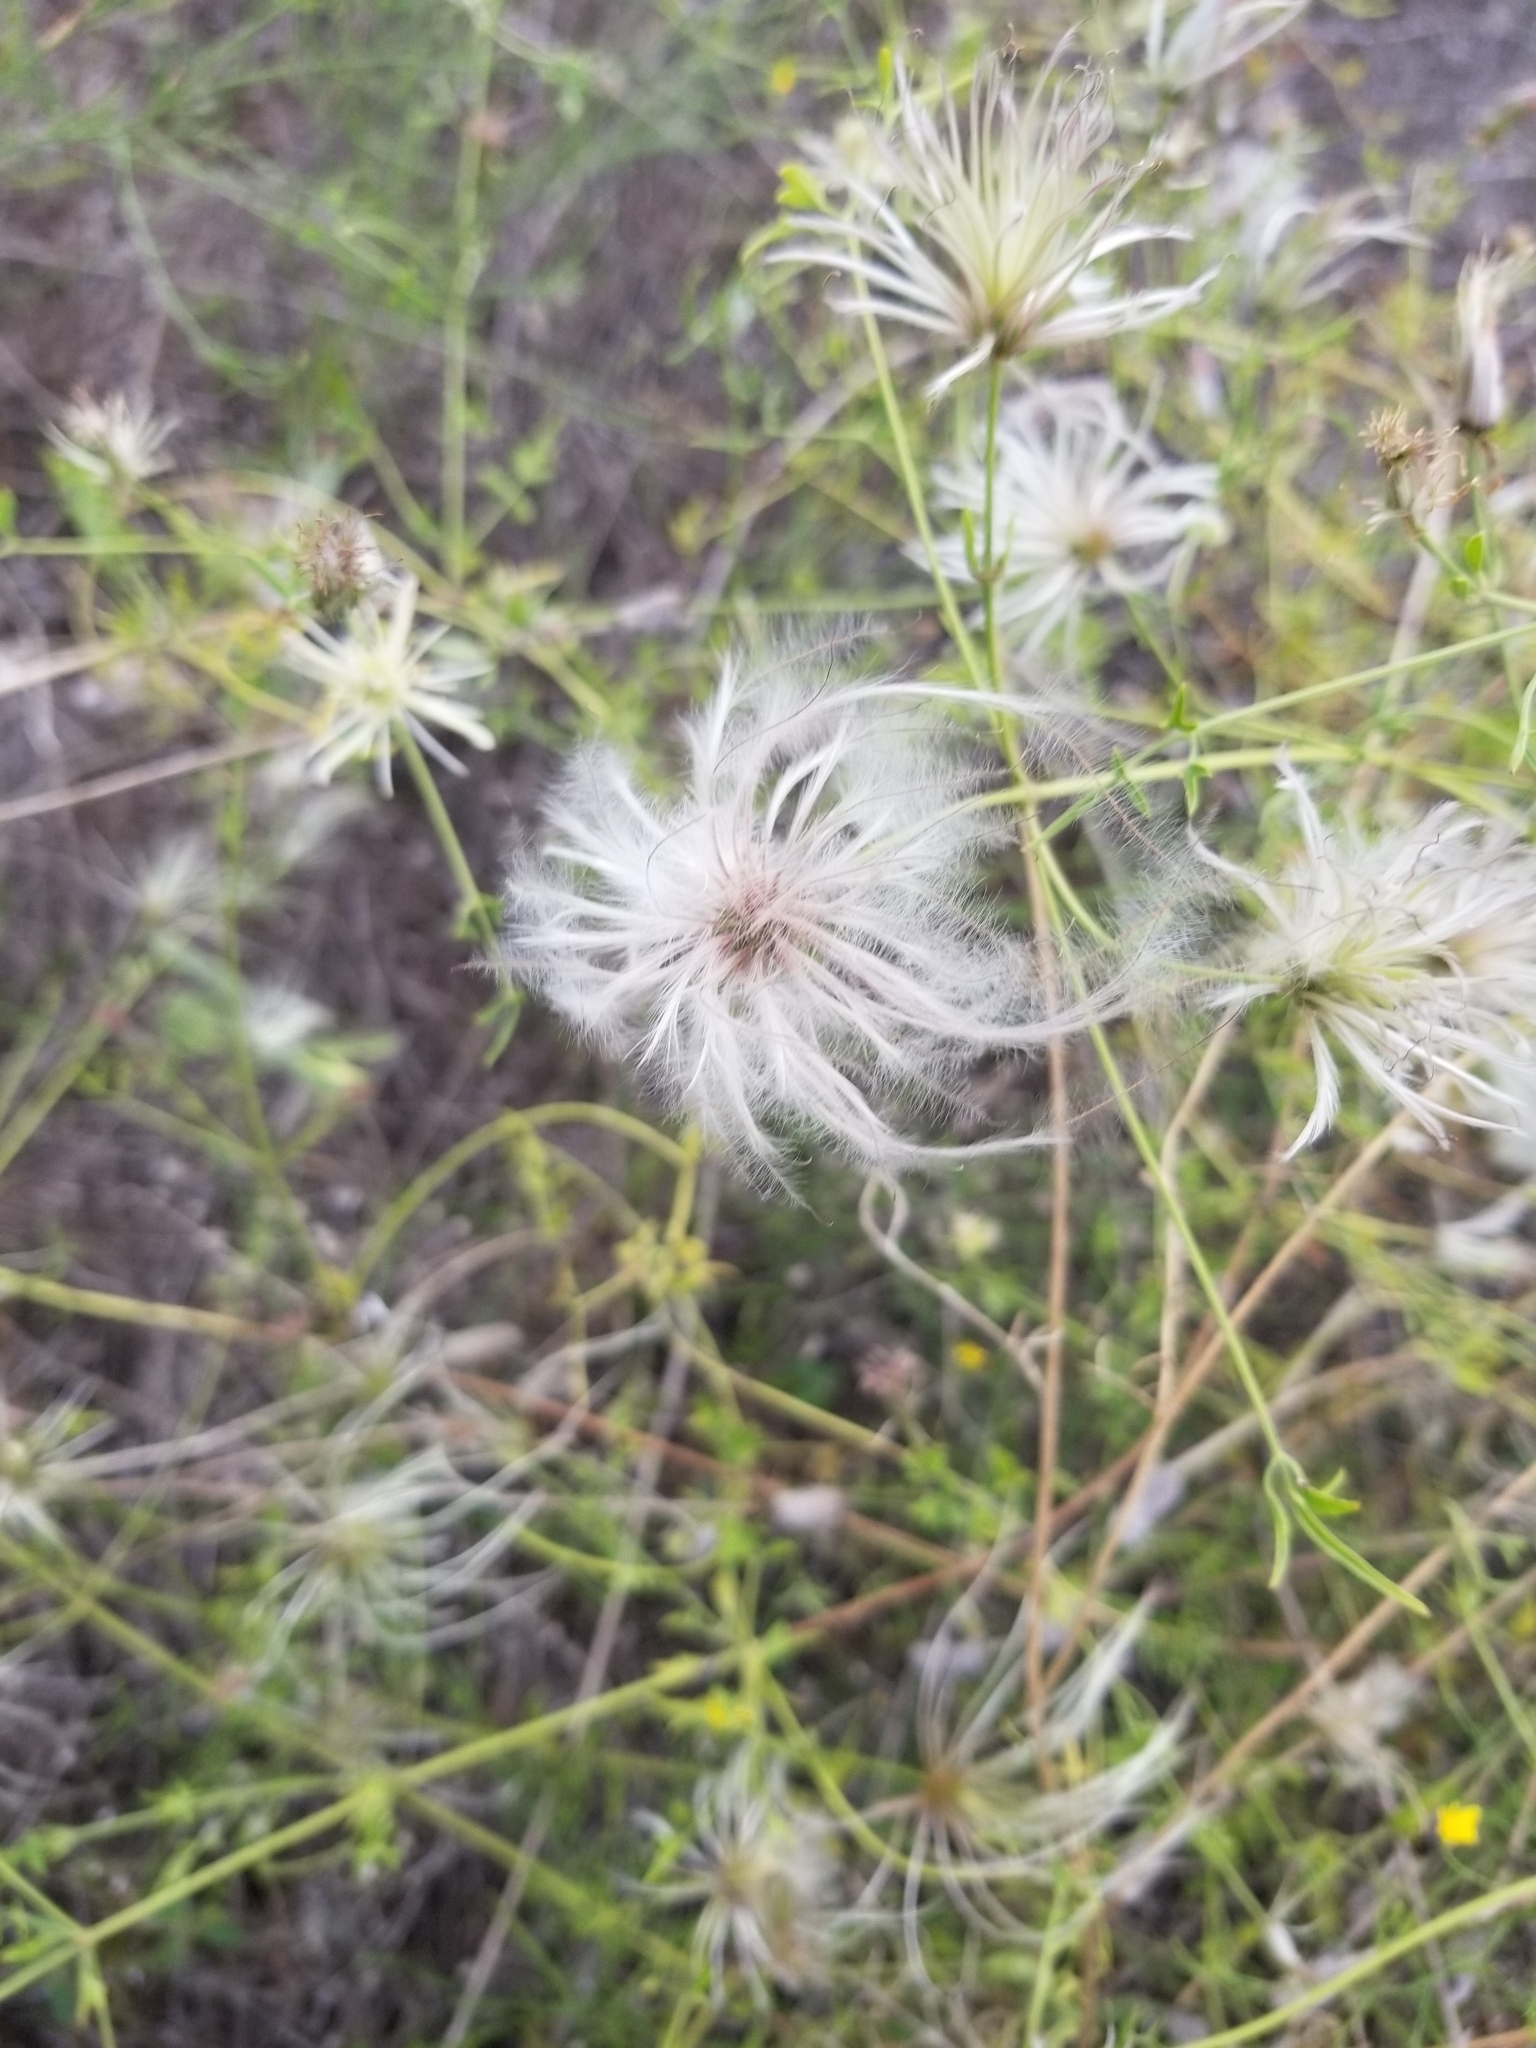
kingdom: Plantae
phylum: Tracheophyta
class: Magnoliopsida
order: Ranunculales
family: Ranunculaceae
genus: Clematis
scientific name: Clematis drummondii
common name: Texas virgin's bower
